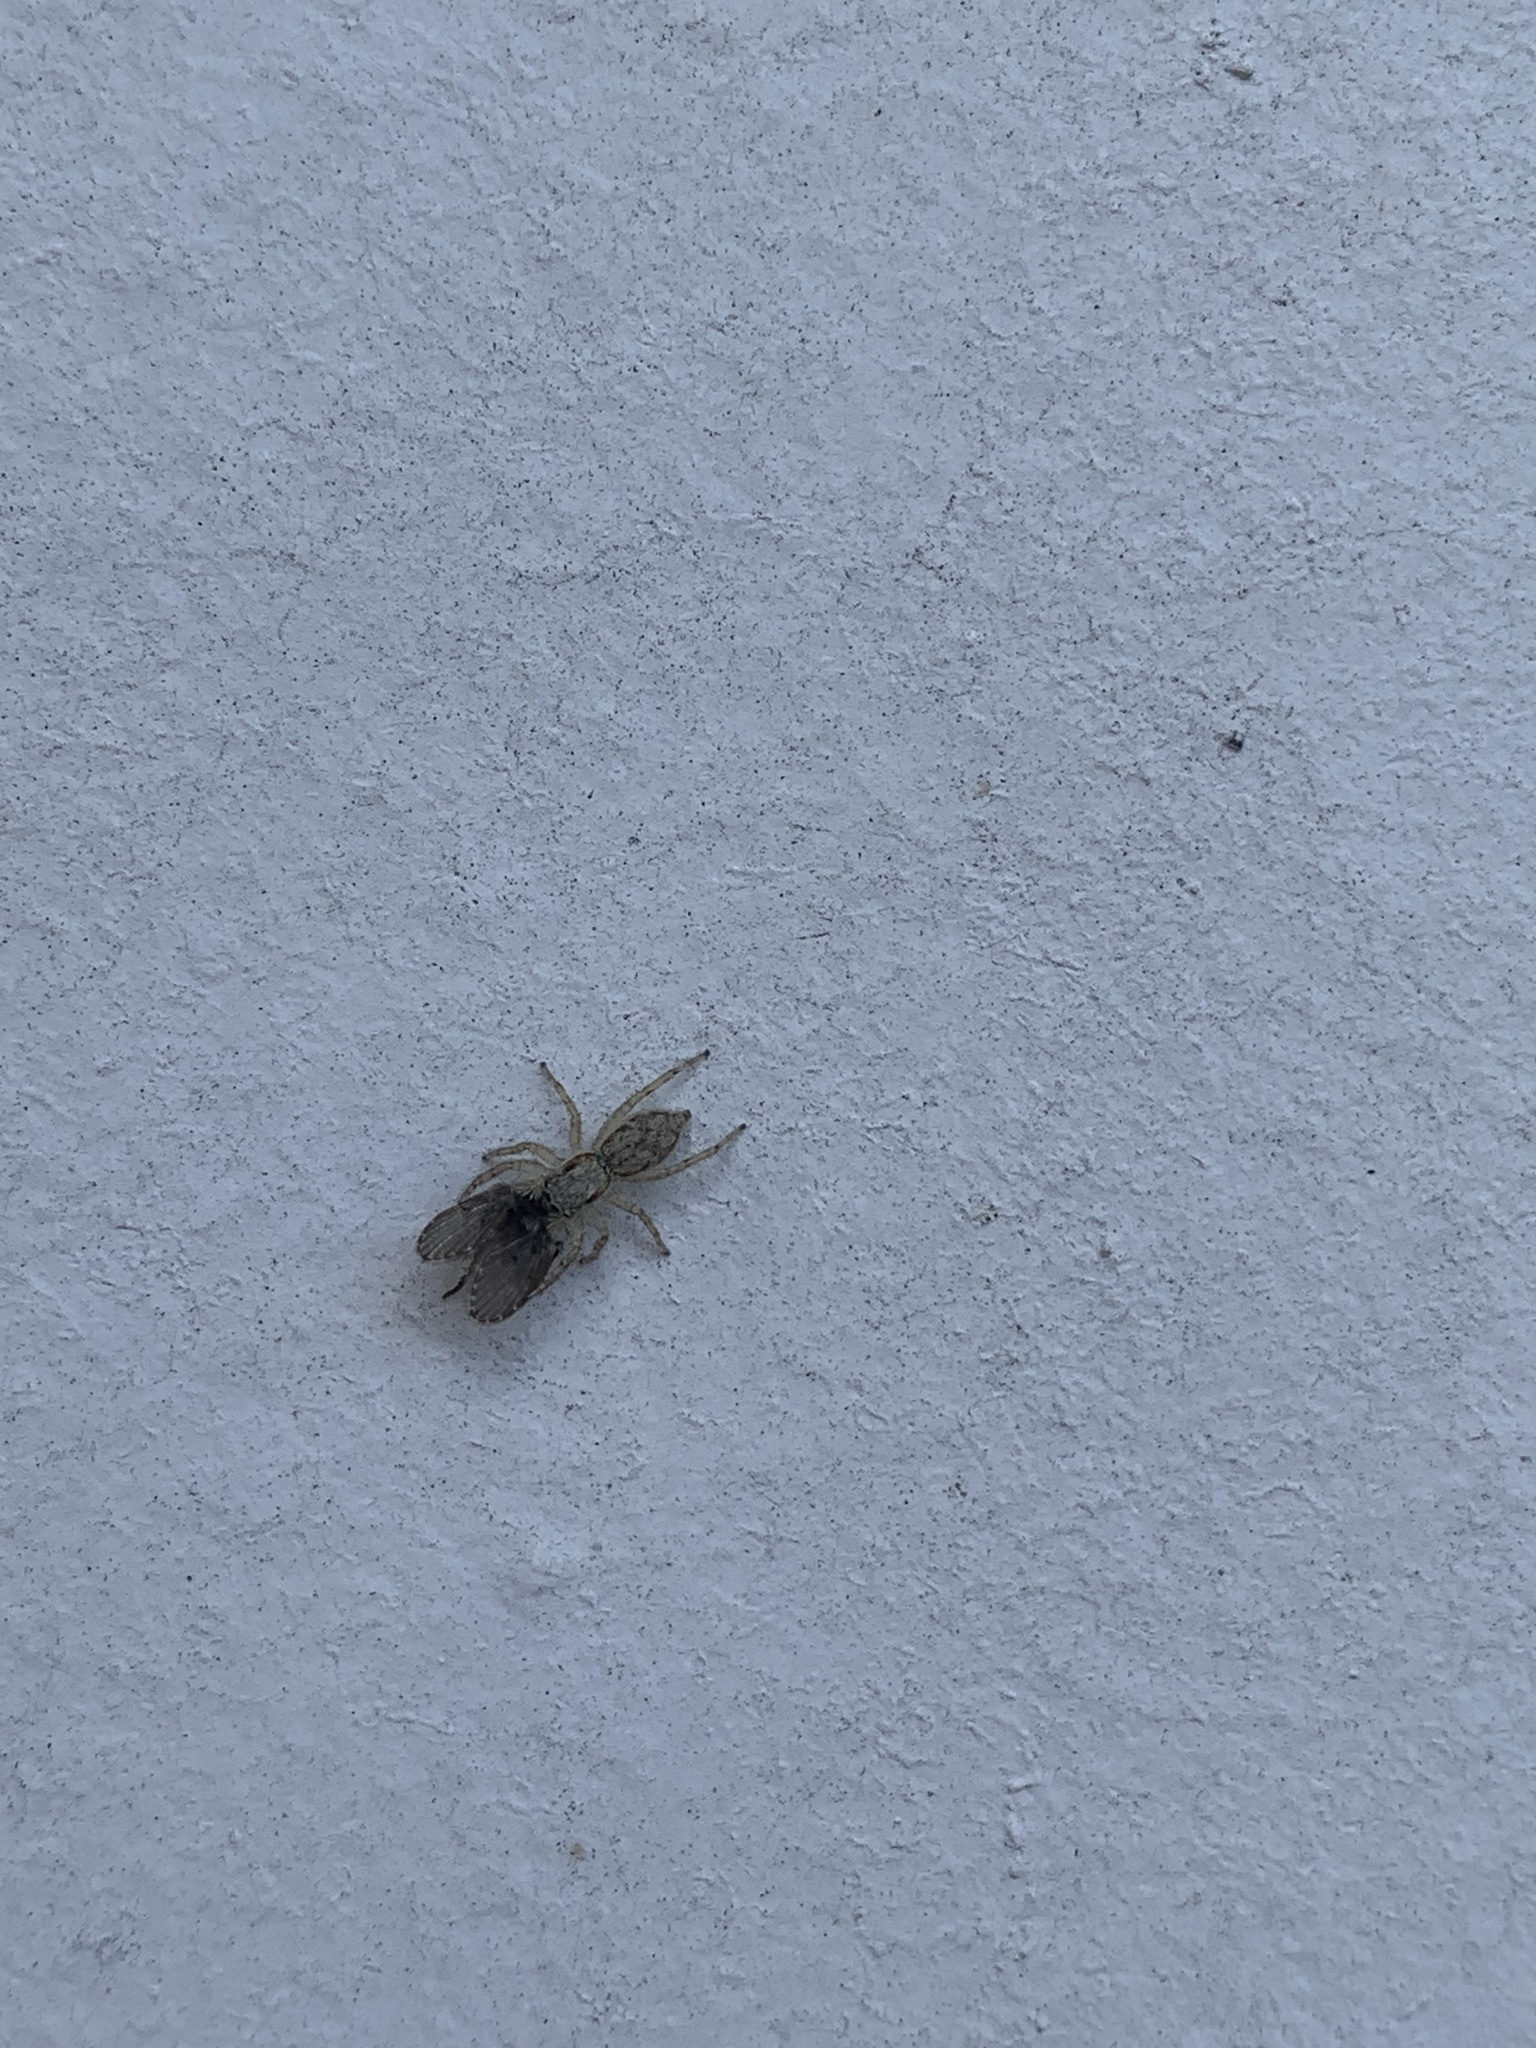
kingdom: Animalia
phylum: Arthropoda
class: Arachnida
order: Araneae
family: Salticidae
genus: Menemerus
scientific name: Menemerus bivittatus
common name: Gray wall jumper
